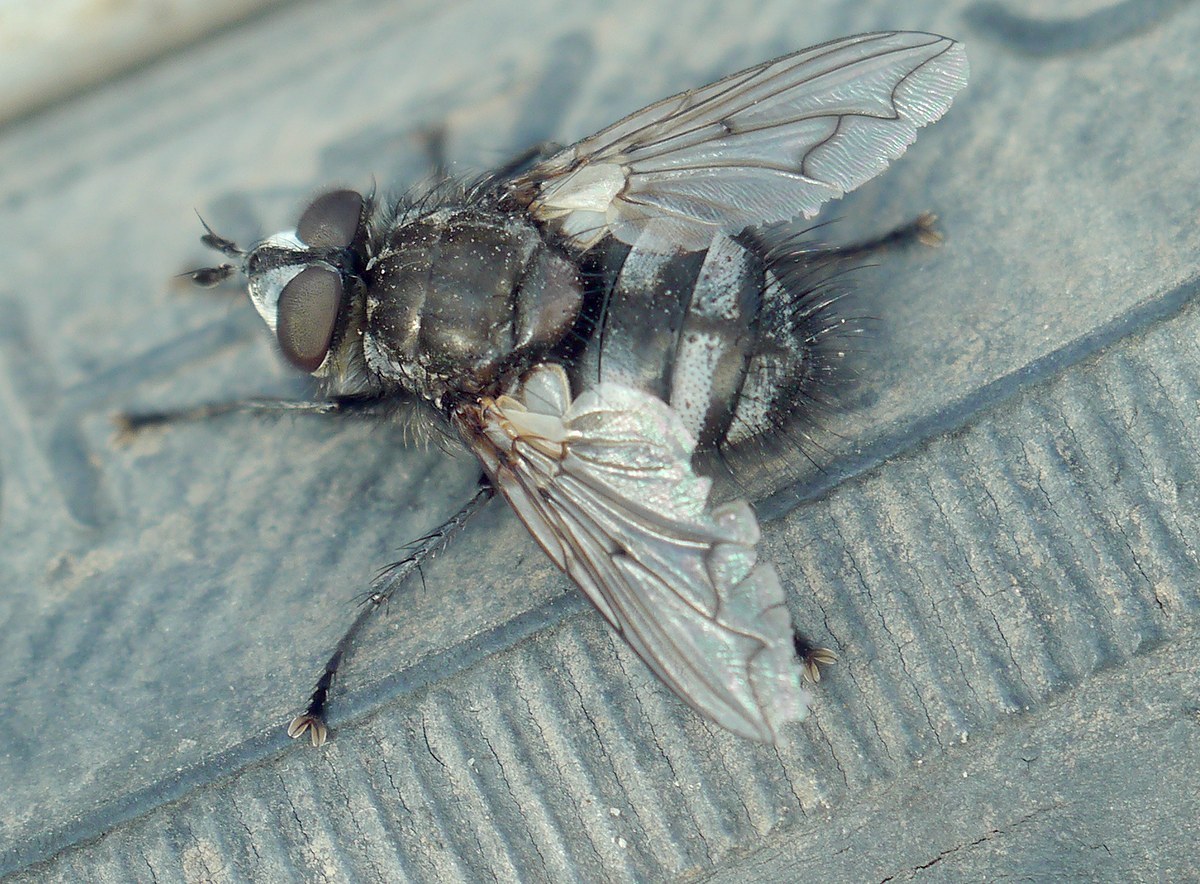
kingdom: Animalia
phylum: Arthropoda
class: Insecta
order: Diptera
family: Tachinidae
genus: Panzeria
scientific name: Panzeria puparum
